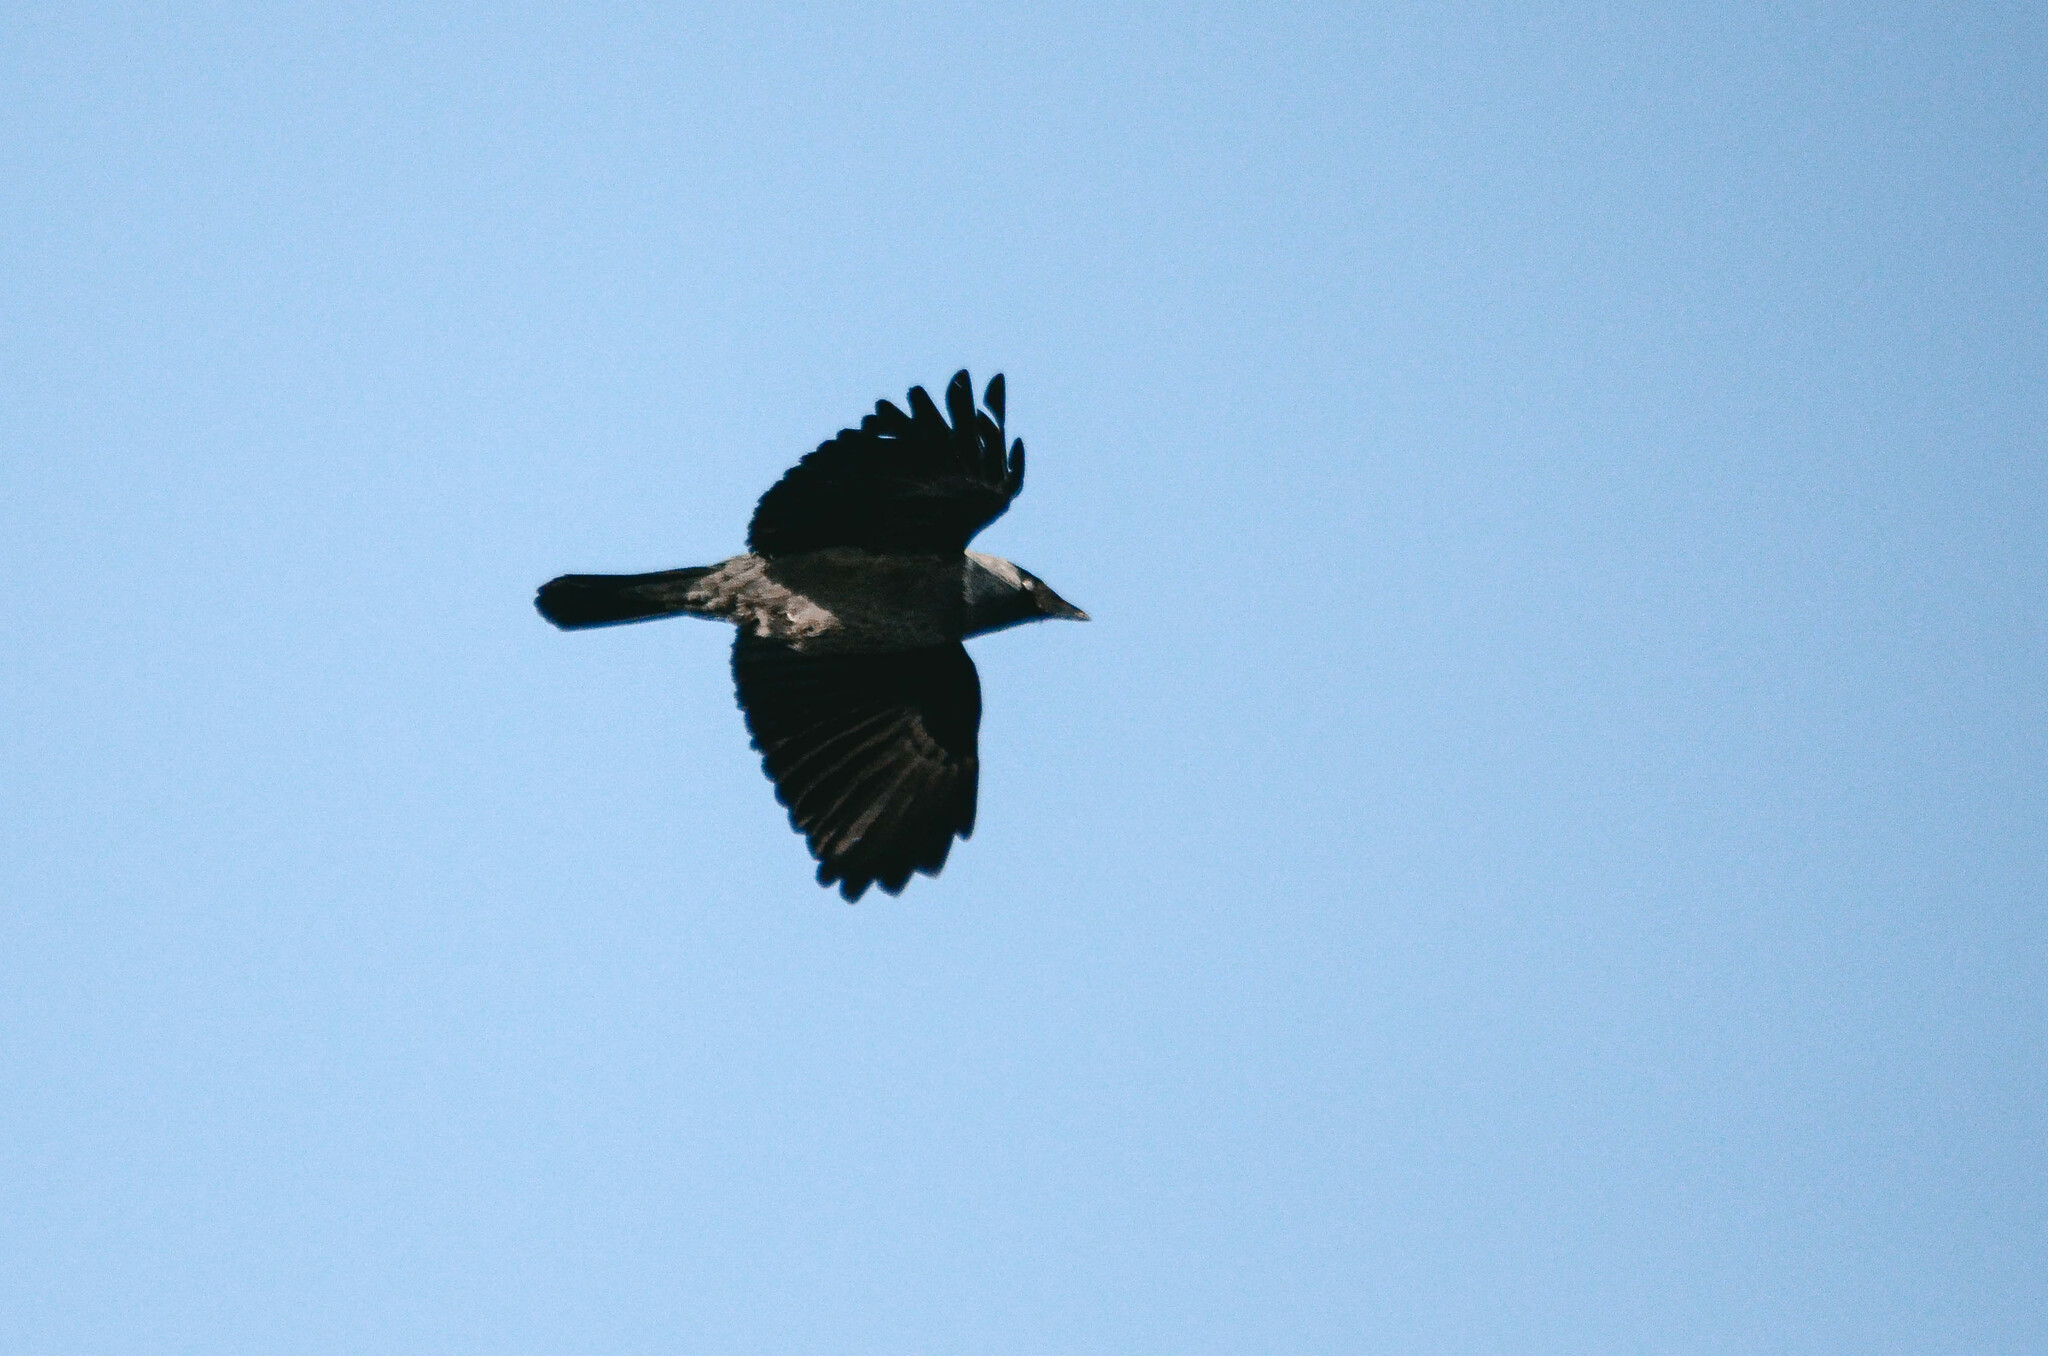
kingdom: Animalia
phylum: Chordata
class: Aves
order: Passeriformes
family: Corvidae
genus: Coloeus
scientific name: Coloeus monedula
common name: Western jackdaw
